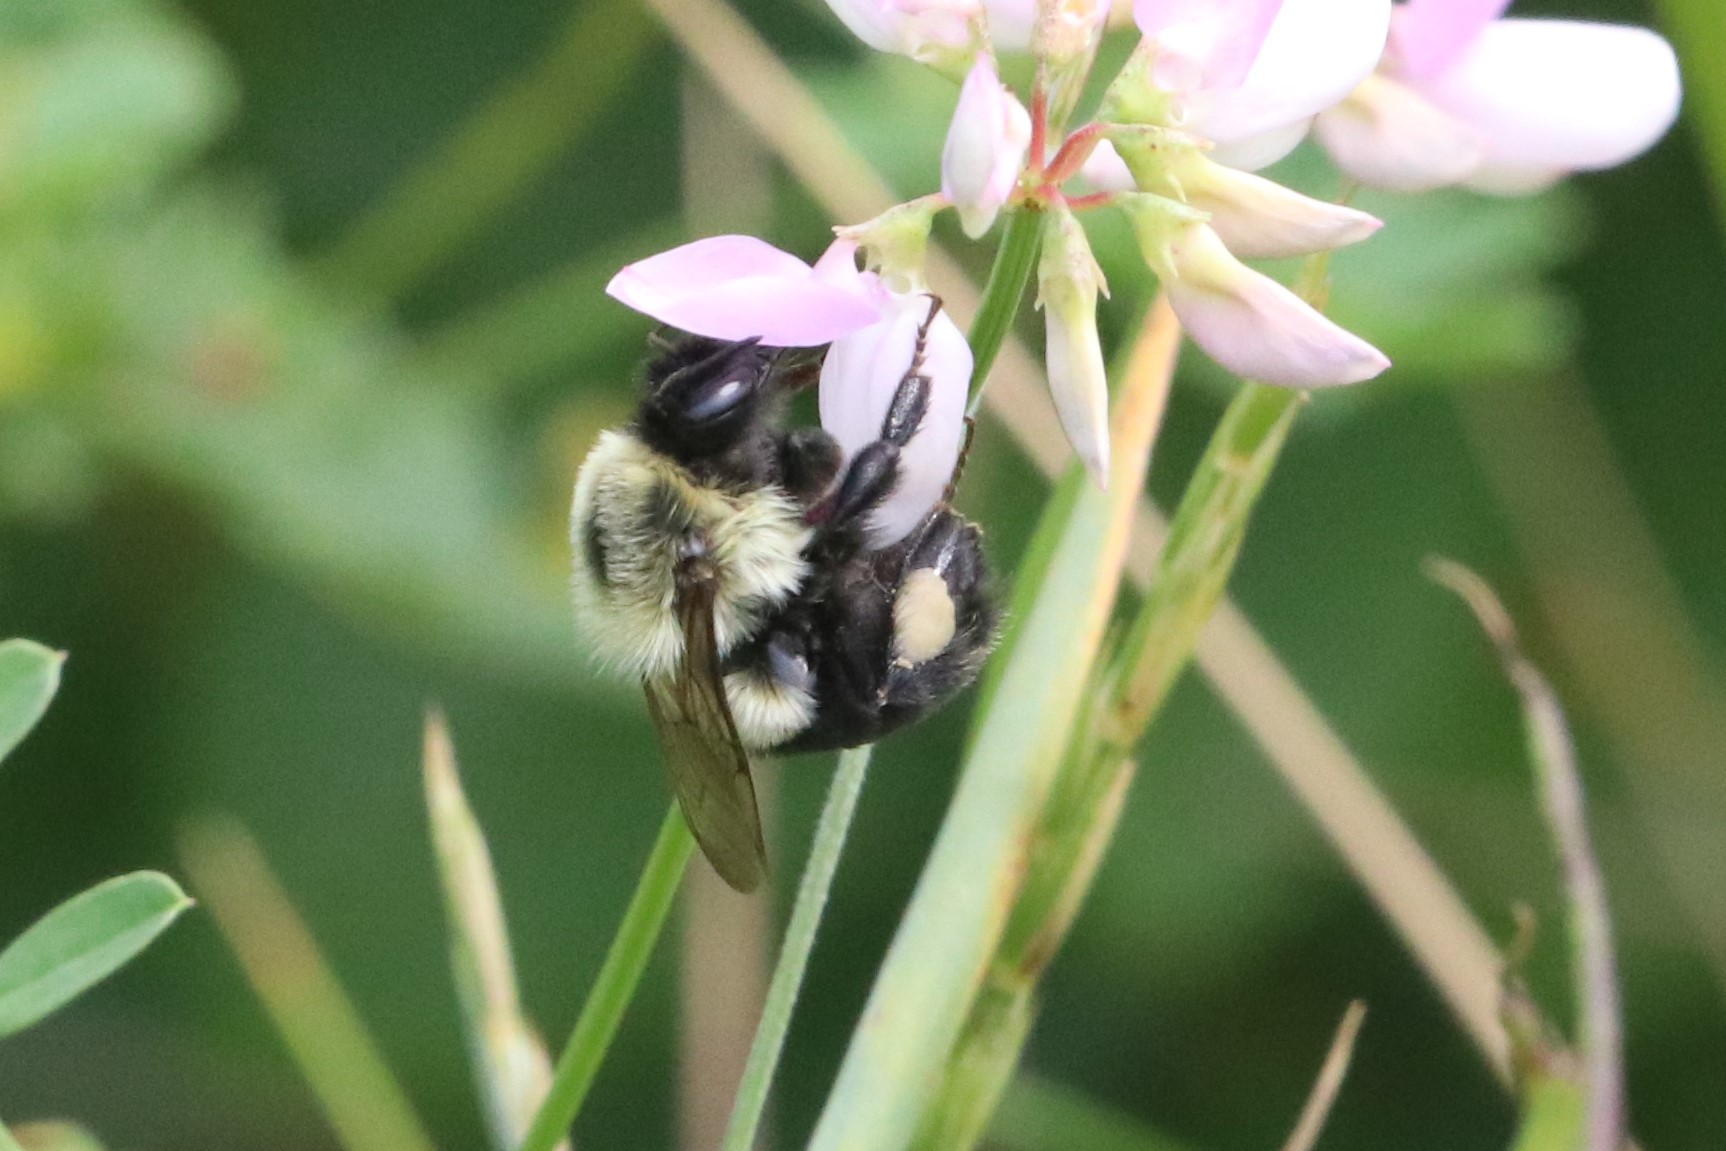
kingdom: Animalia
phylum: Arthropoda
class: Insecta
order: Hymenoptera
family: Apidae
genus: Bombus
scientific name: Bombus impatiens
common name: Common eastern bumble bee
